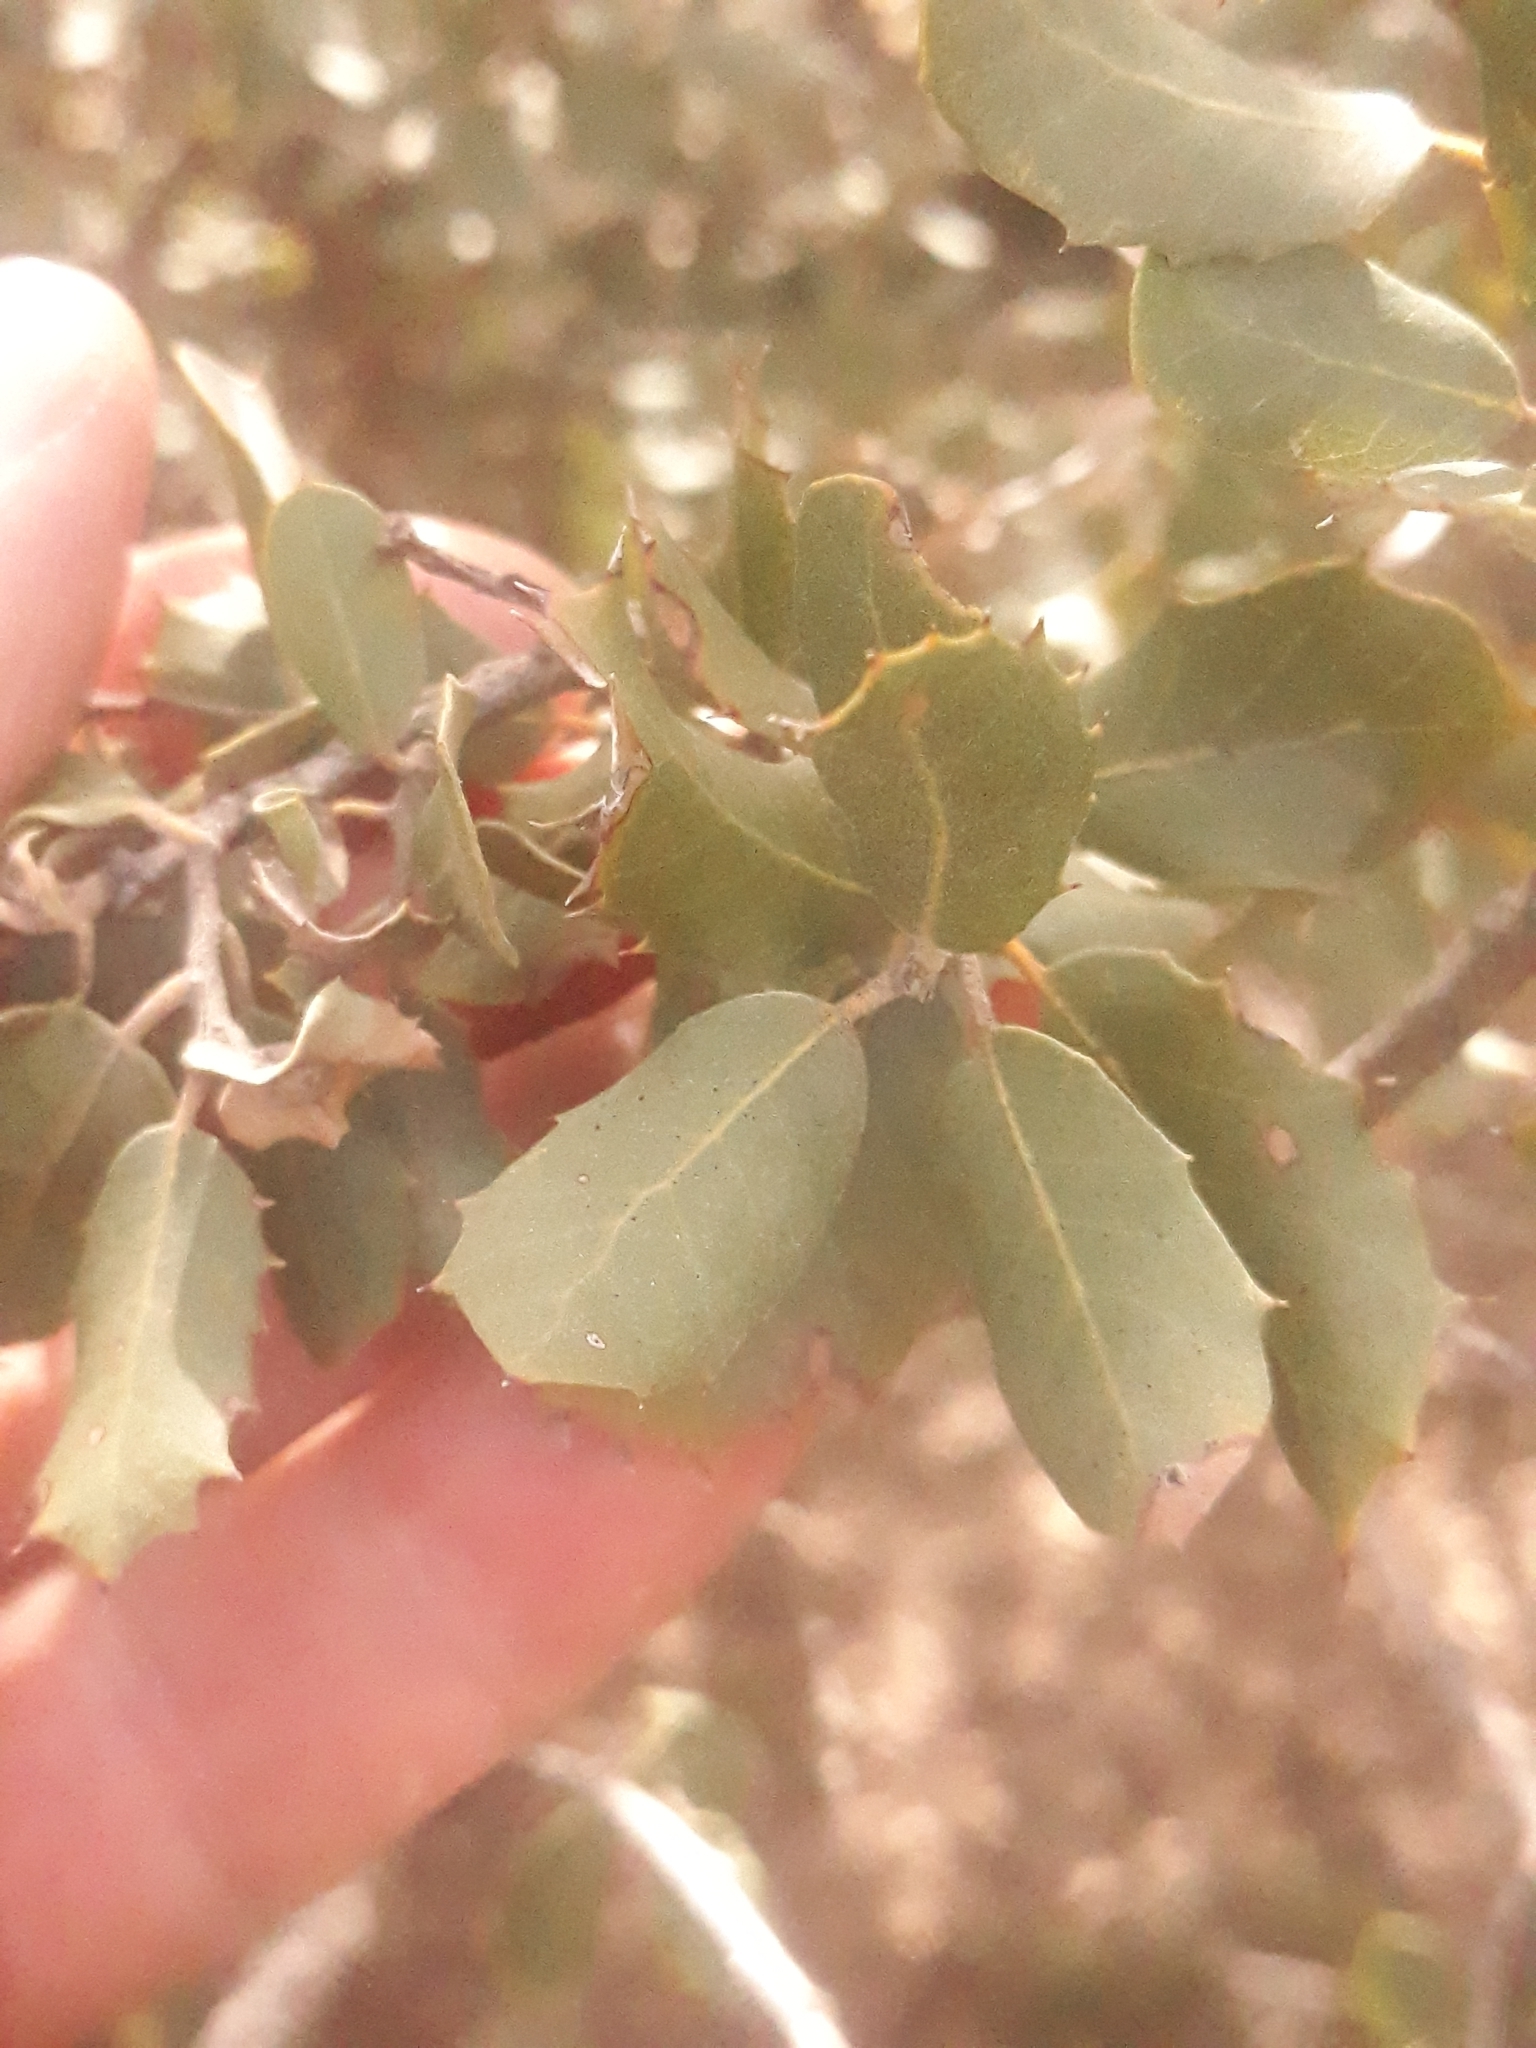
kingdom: Plantae
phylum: Tracheophyta
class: Magnoliopsida
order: Fagales
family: Fagaceae
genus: Quercus
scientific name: Quercus rotundifolia
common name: Holm oak
